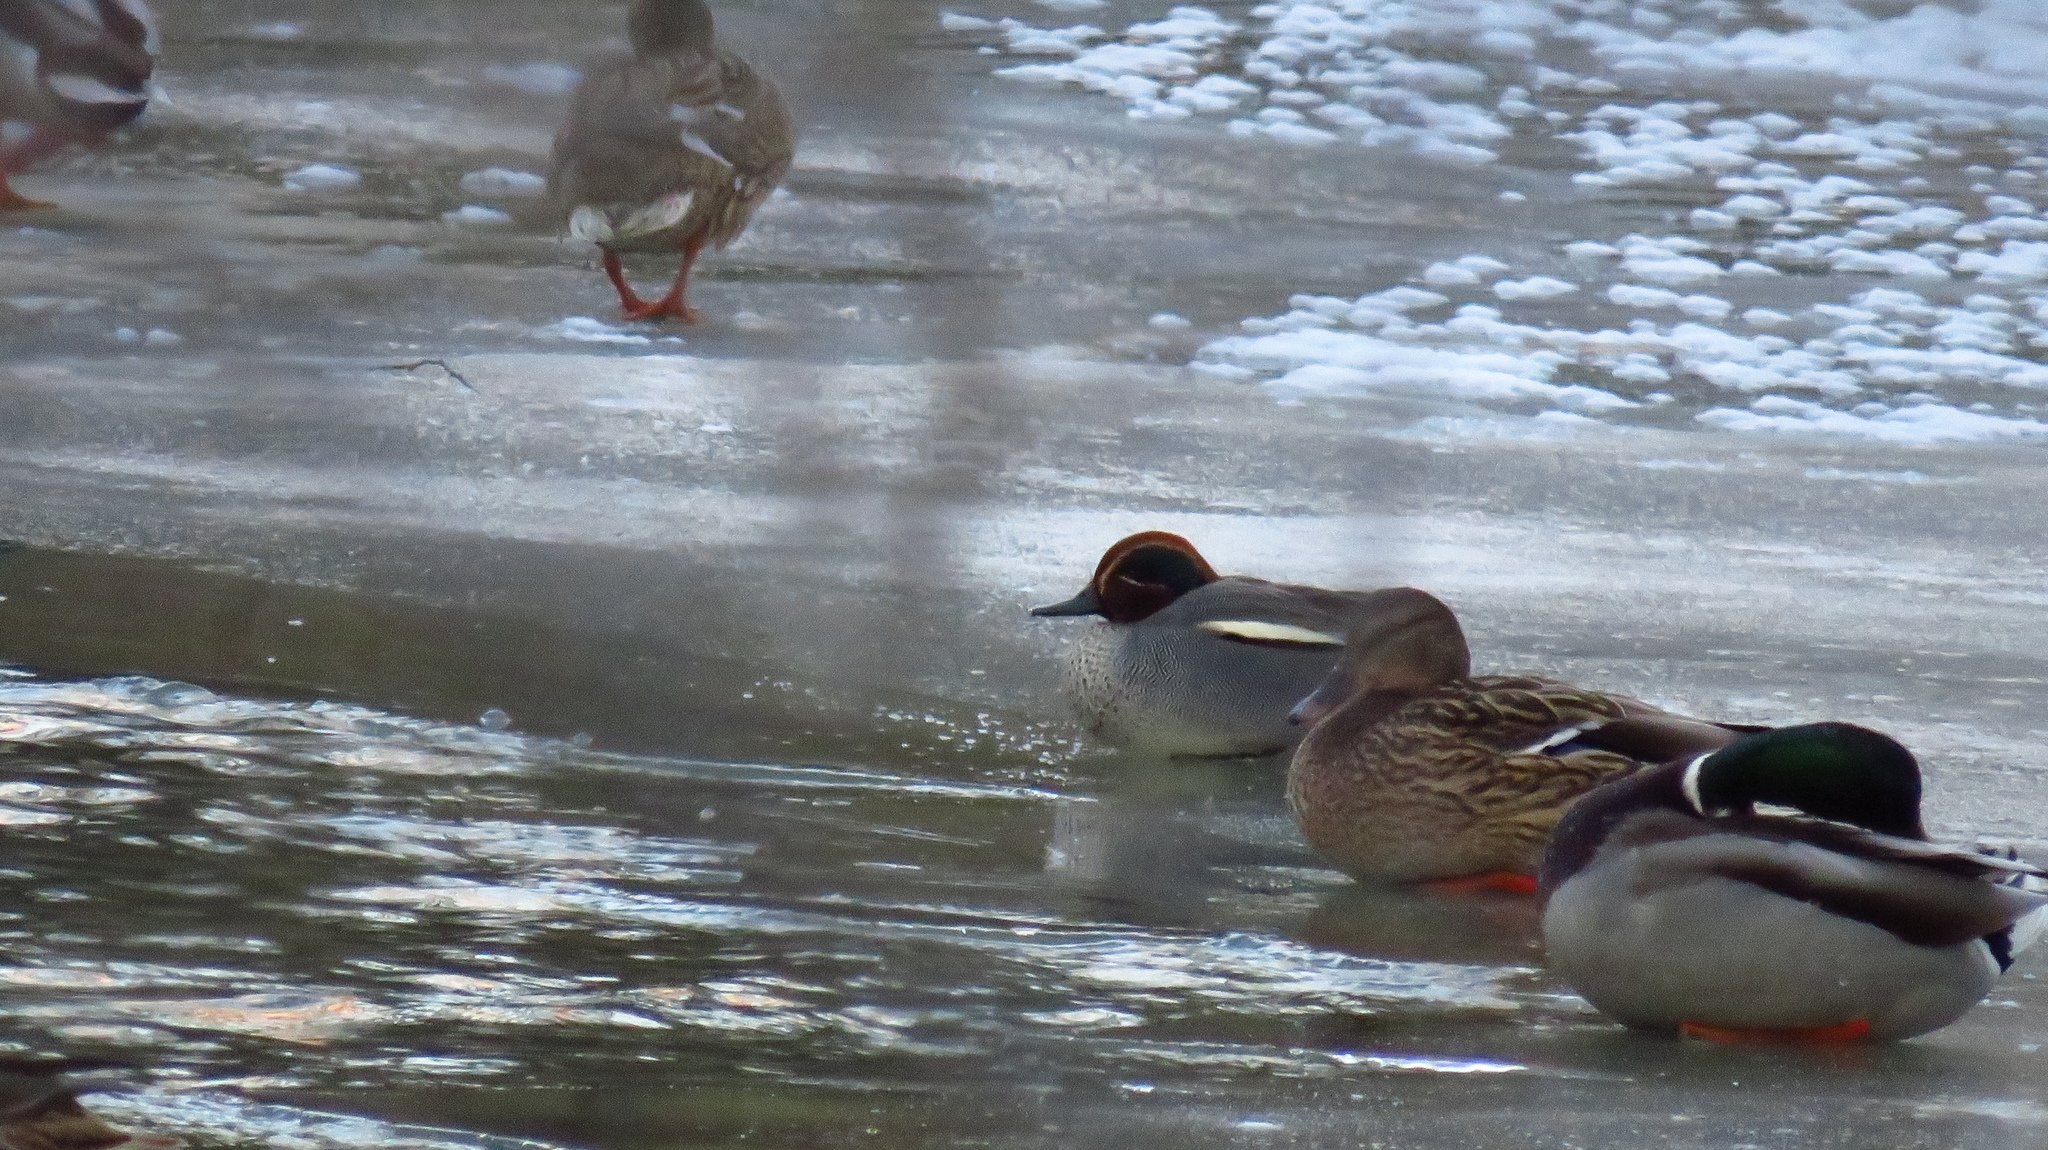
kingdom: Animalia
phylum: Chordata
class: Aves
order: Anseriformes
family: Anatidae
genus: Anas
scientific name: Anas crecca
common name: Eurasian teal
